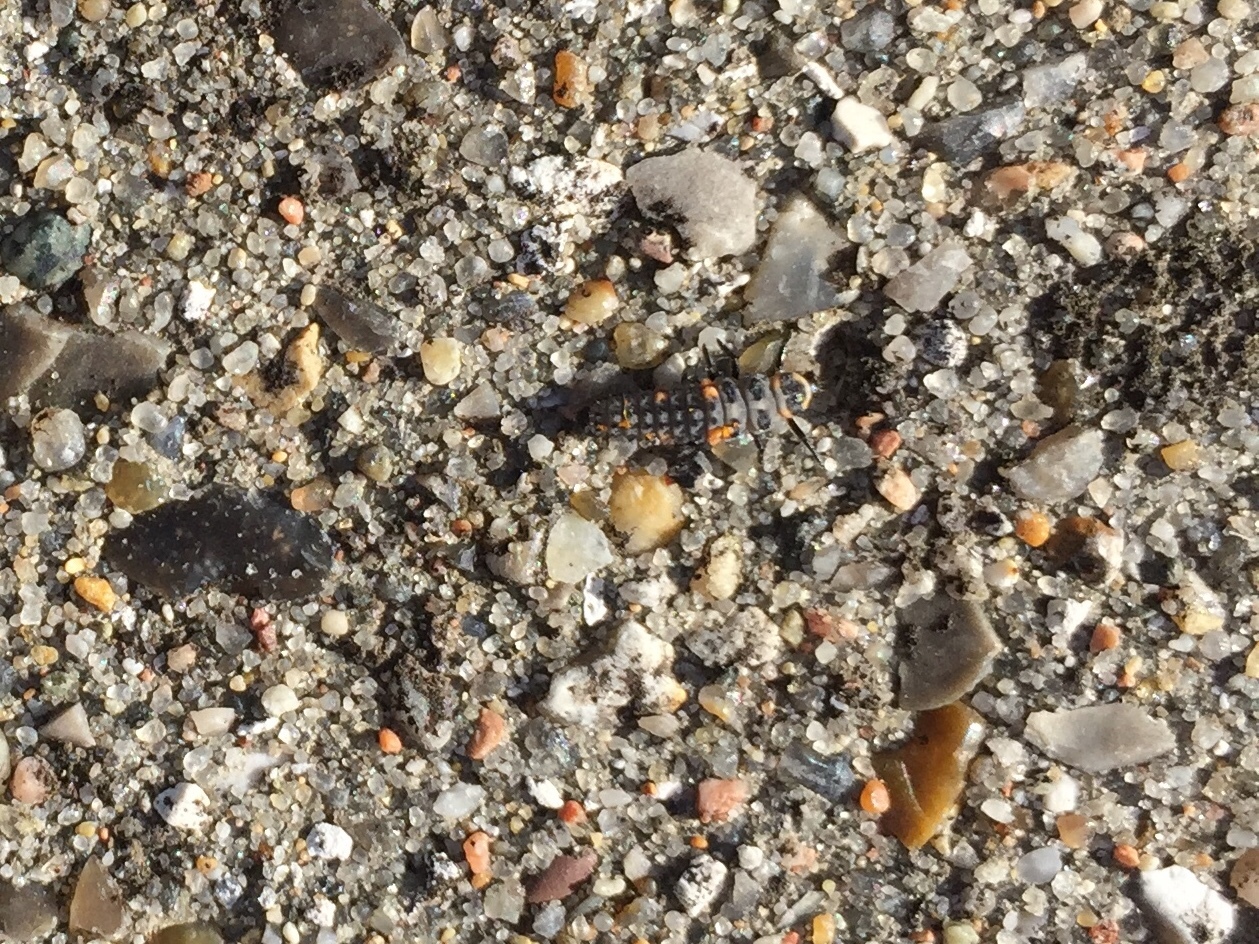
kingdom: Animalia
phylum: Arthropoda
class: Insecta
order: Coleoptera
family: Coccinellidae
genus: Coccinella
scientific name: Coccinella septempunctata
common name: Sevenspotted lady beetle
